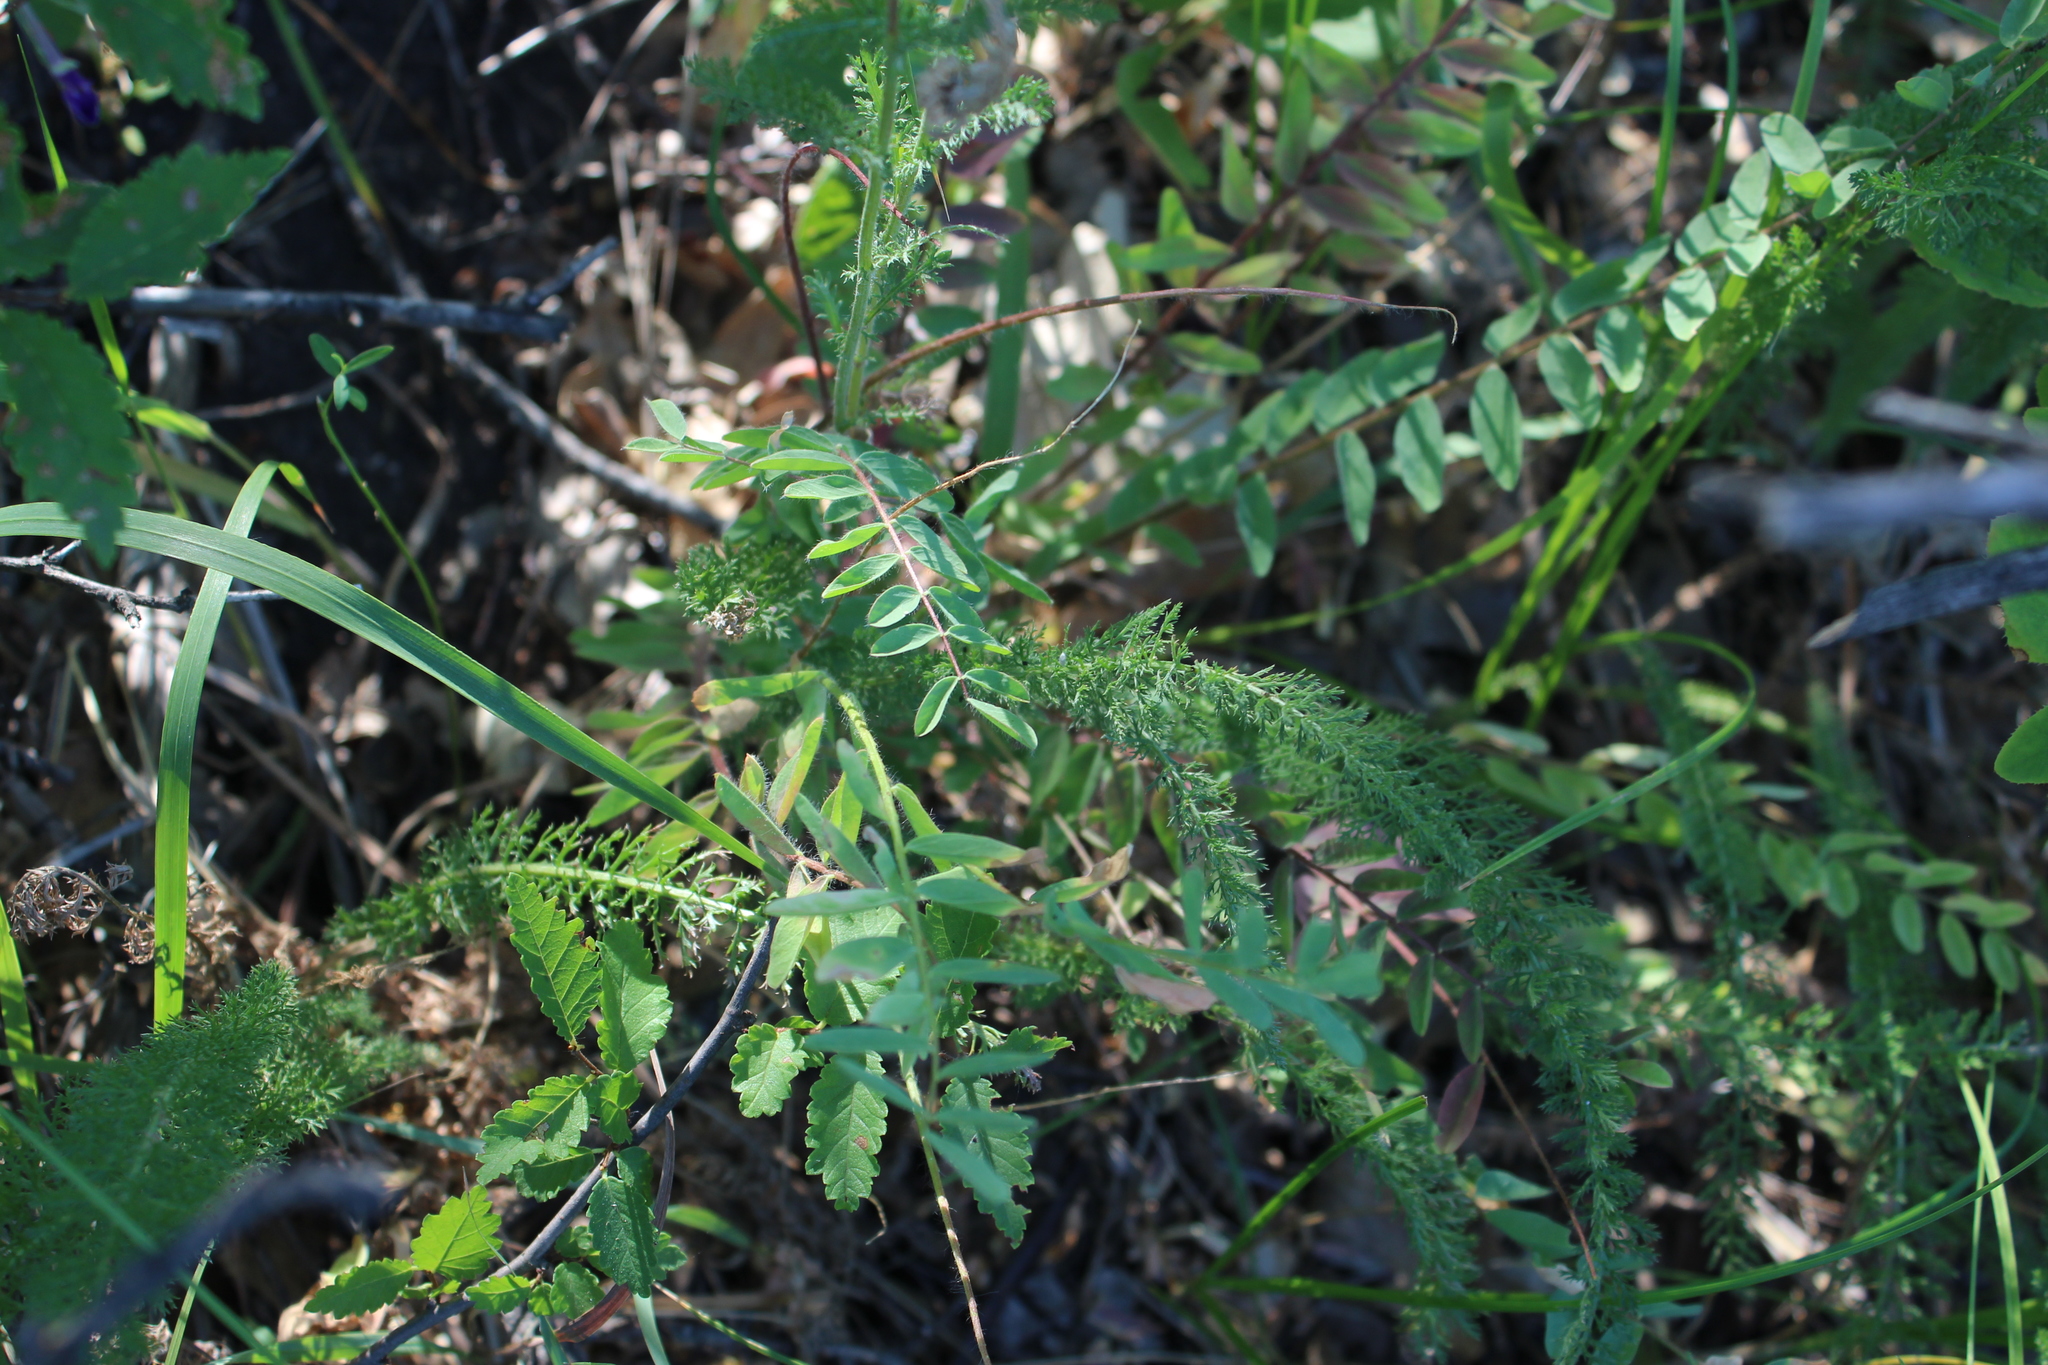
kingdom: Plantae
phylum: Tracheophyta
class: Magnoliopsida
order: Fabales
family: Fabaceae
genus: Astragalus
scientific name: Astragalus buchtormensis
